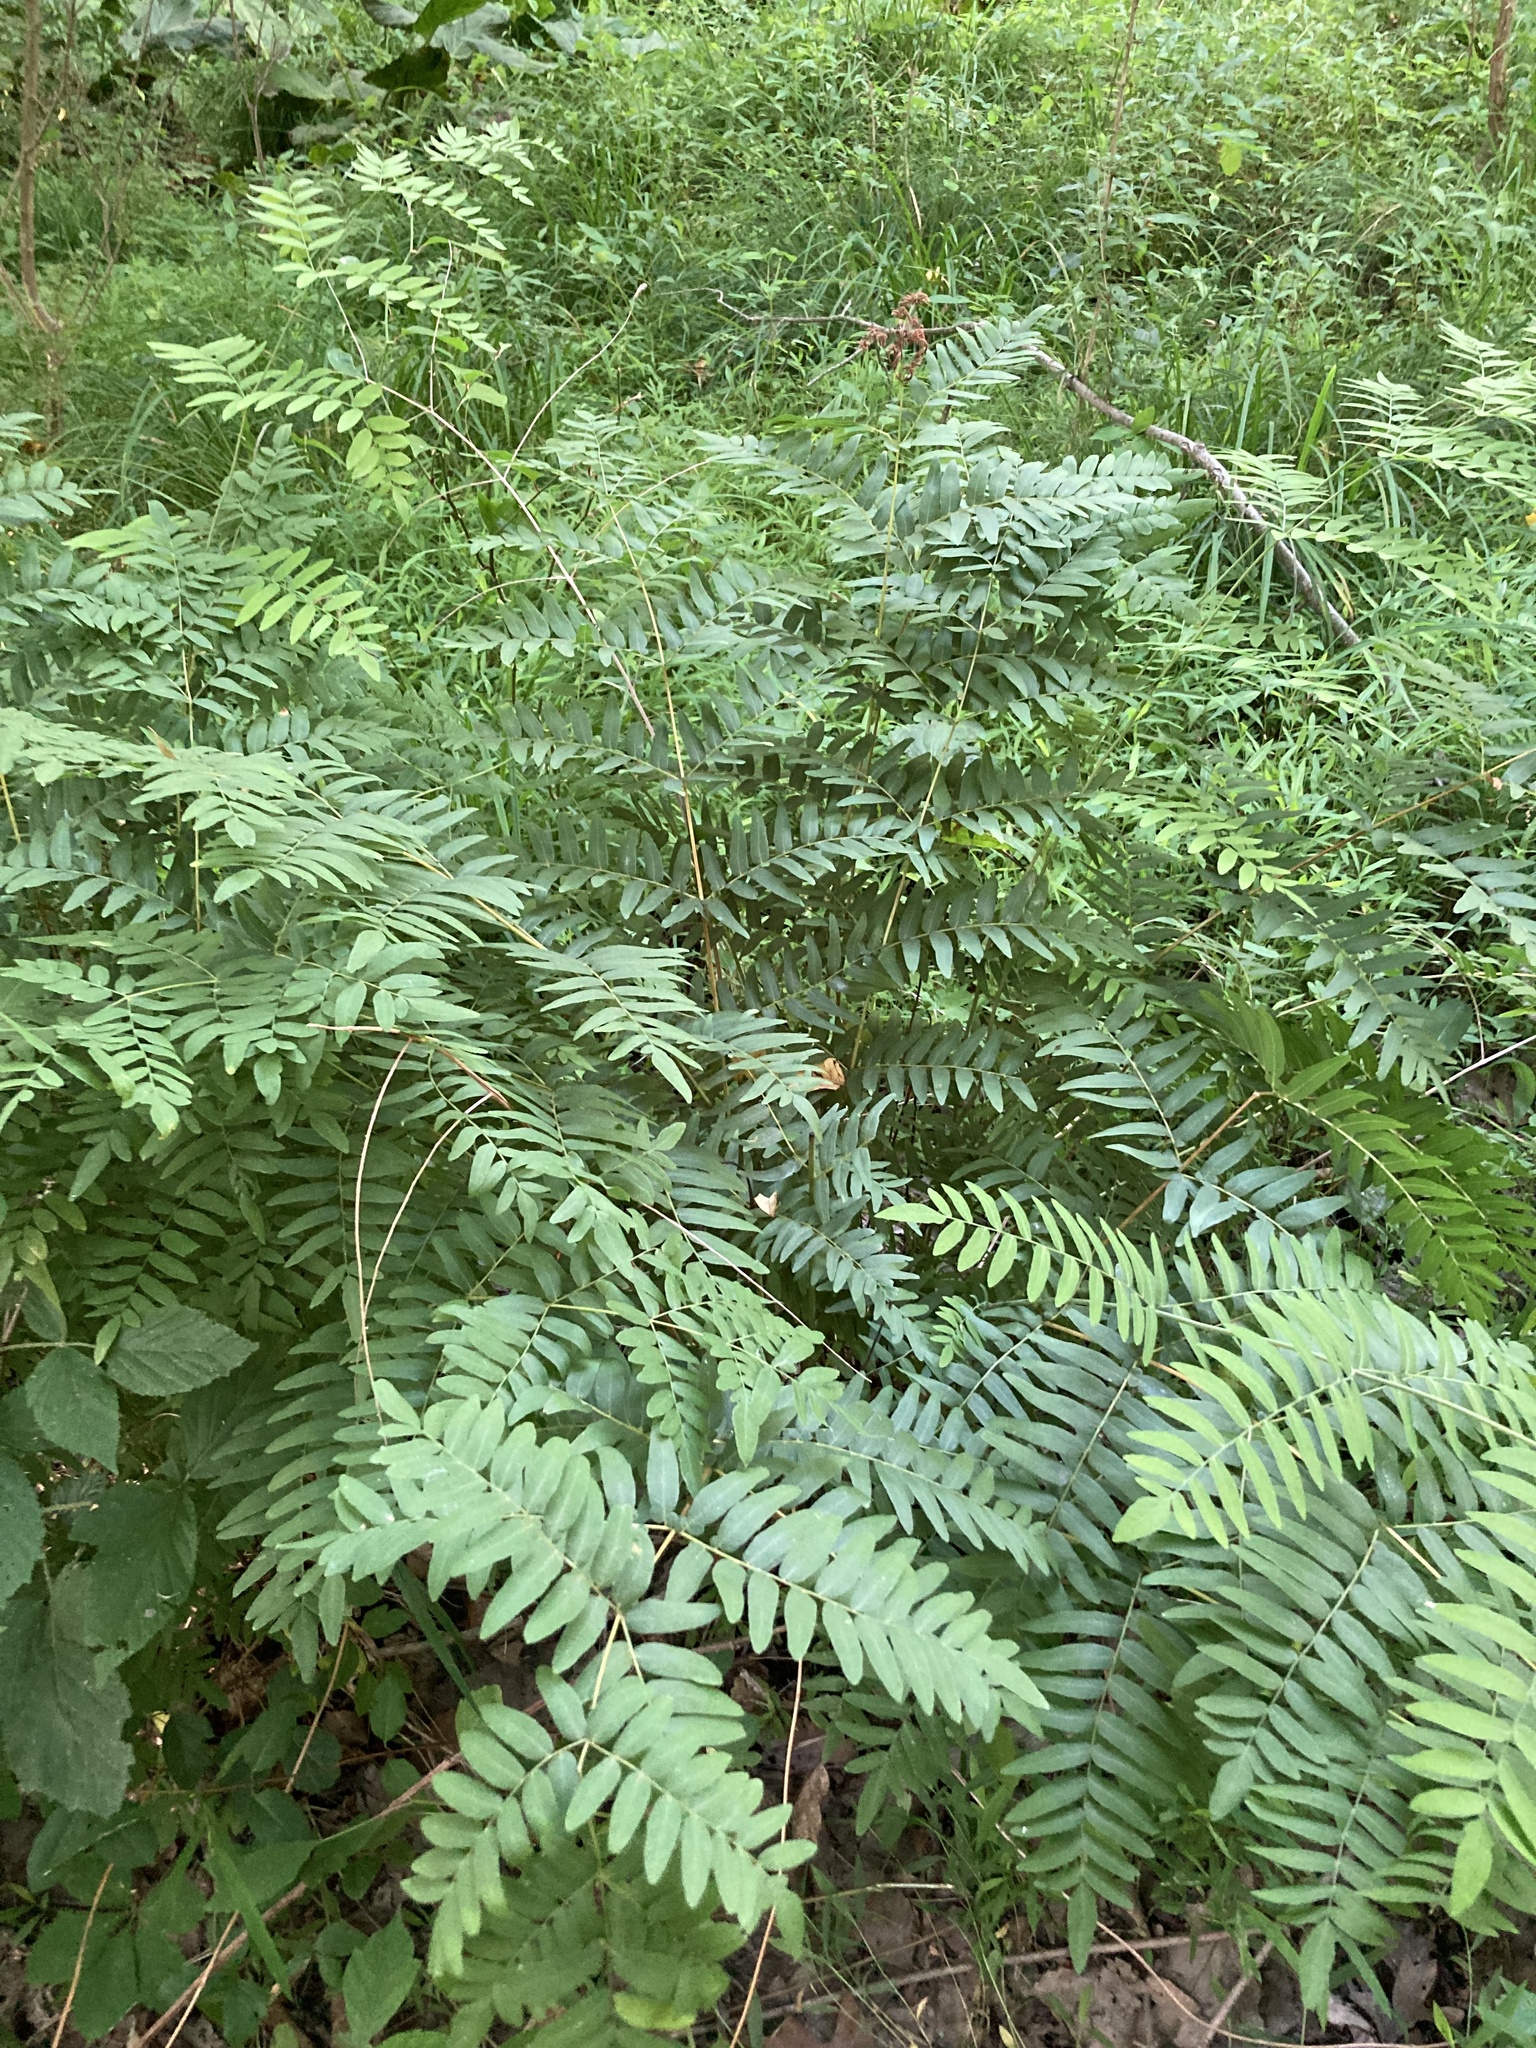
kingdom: Plantae
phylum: Tracheophyta
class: Polypodiopsida
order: Osmundales
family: Osmundaceae
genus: Osmunda
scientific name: Osmunda spectabilis
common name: American royal fern
